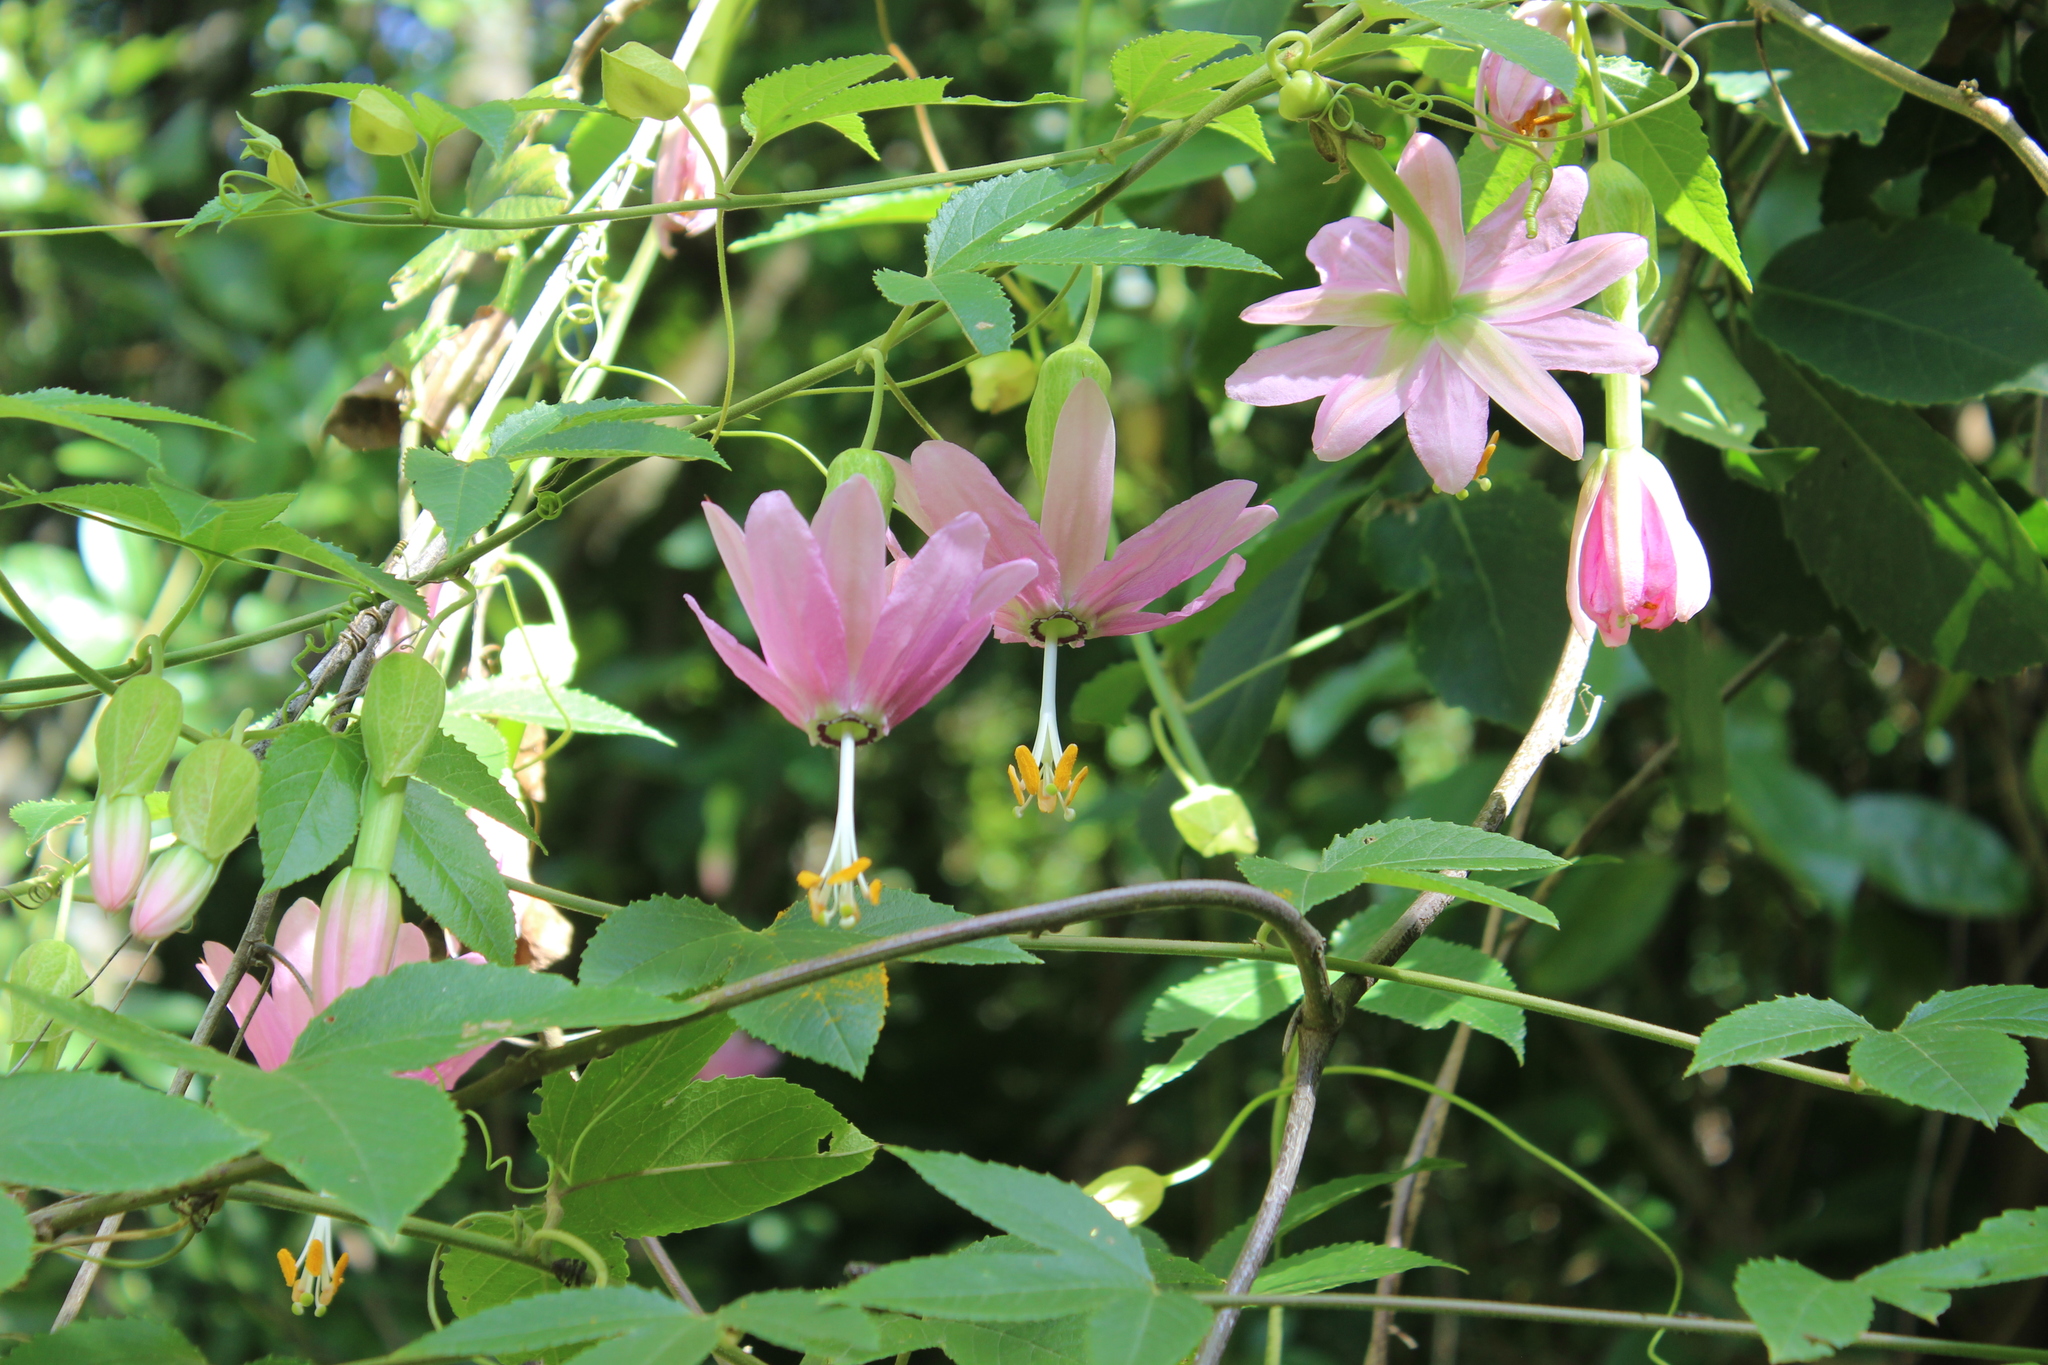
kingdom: Plantae
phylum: Tracheophyta
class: Magnoliopsida
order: Malpighiales
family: Passifloraceae
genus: Passiflora
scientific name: Passiflora tarminiana
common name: Banana poka
